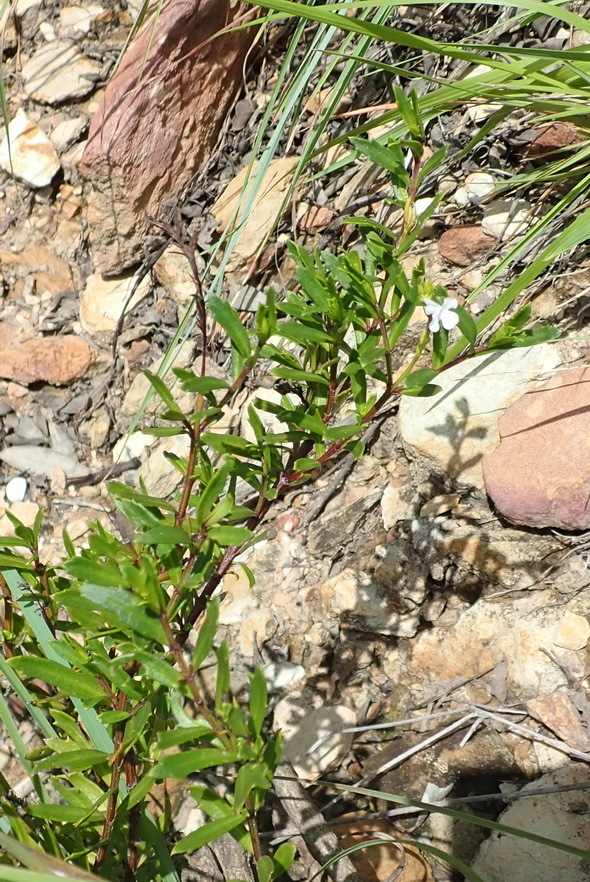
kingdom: Plantae
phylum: Tracheophyta
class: Magnoliopsida
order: Lamiales
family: Verbenaceae
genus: Chascanum
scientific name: Chascanum cernuum
